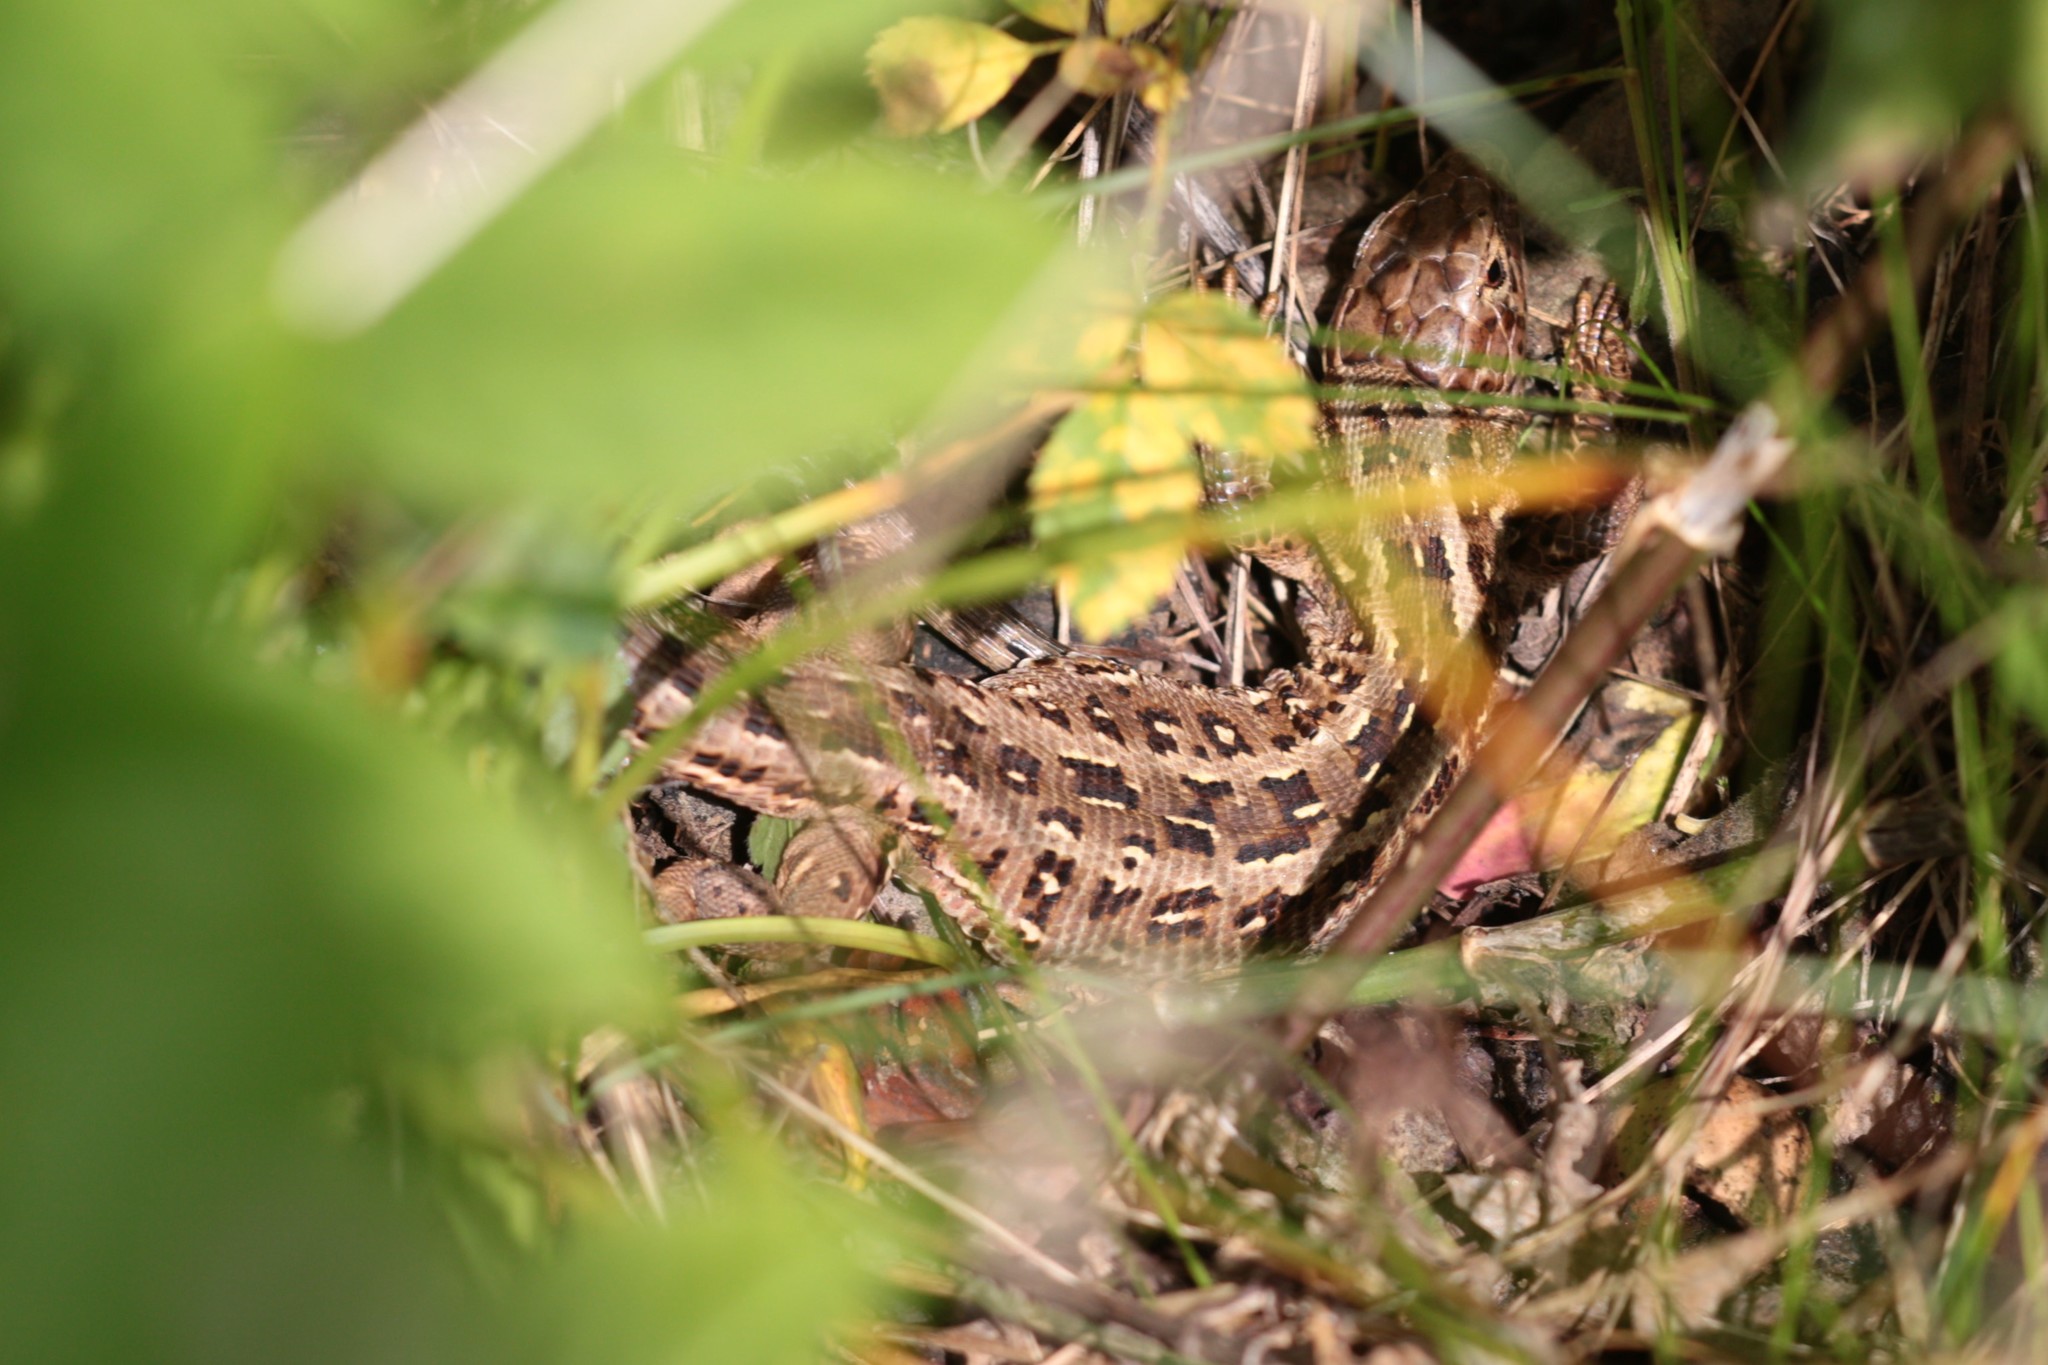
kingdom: Animalia
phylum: Chordata
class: Squamata
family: Lacertidae
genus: Lacerta
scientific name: Lacerta agilis
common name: Sand lizard
